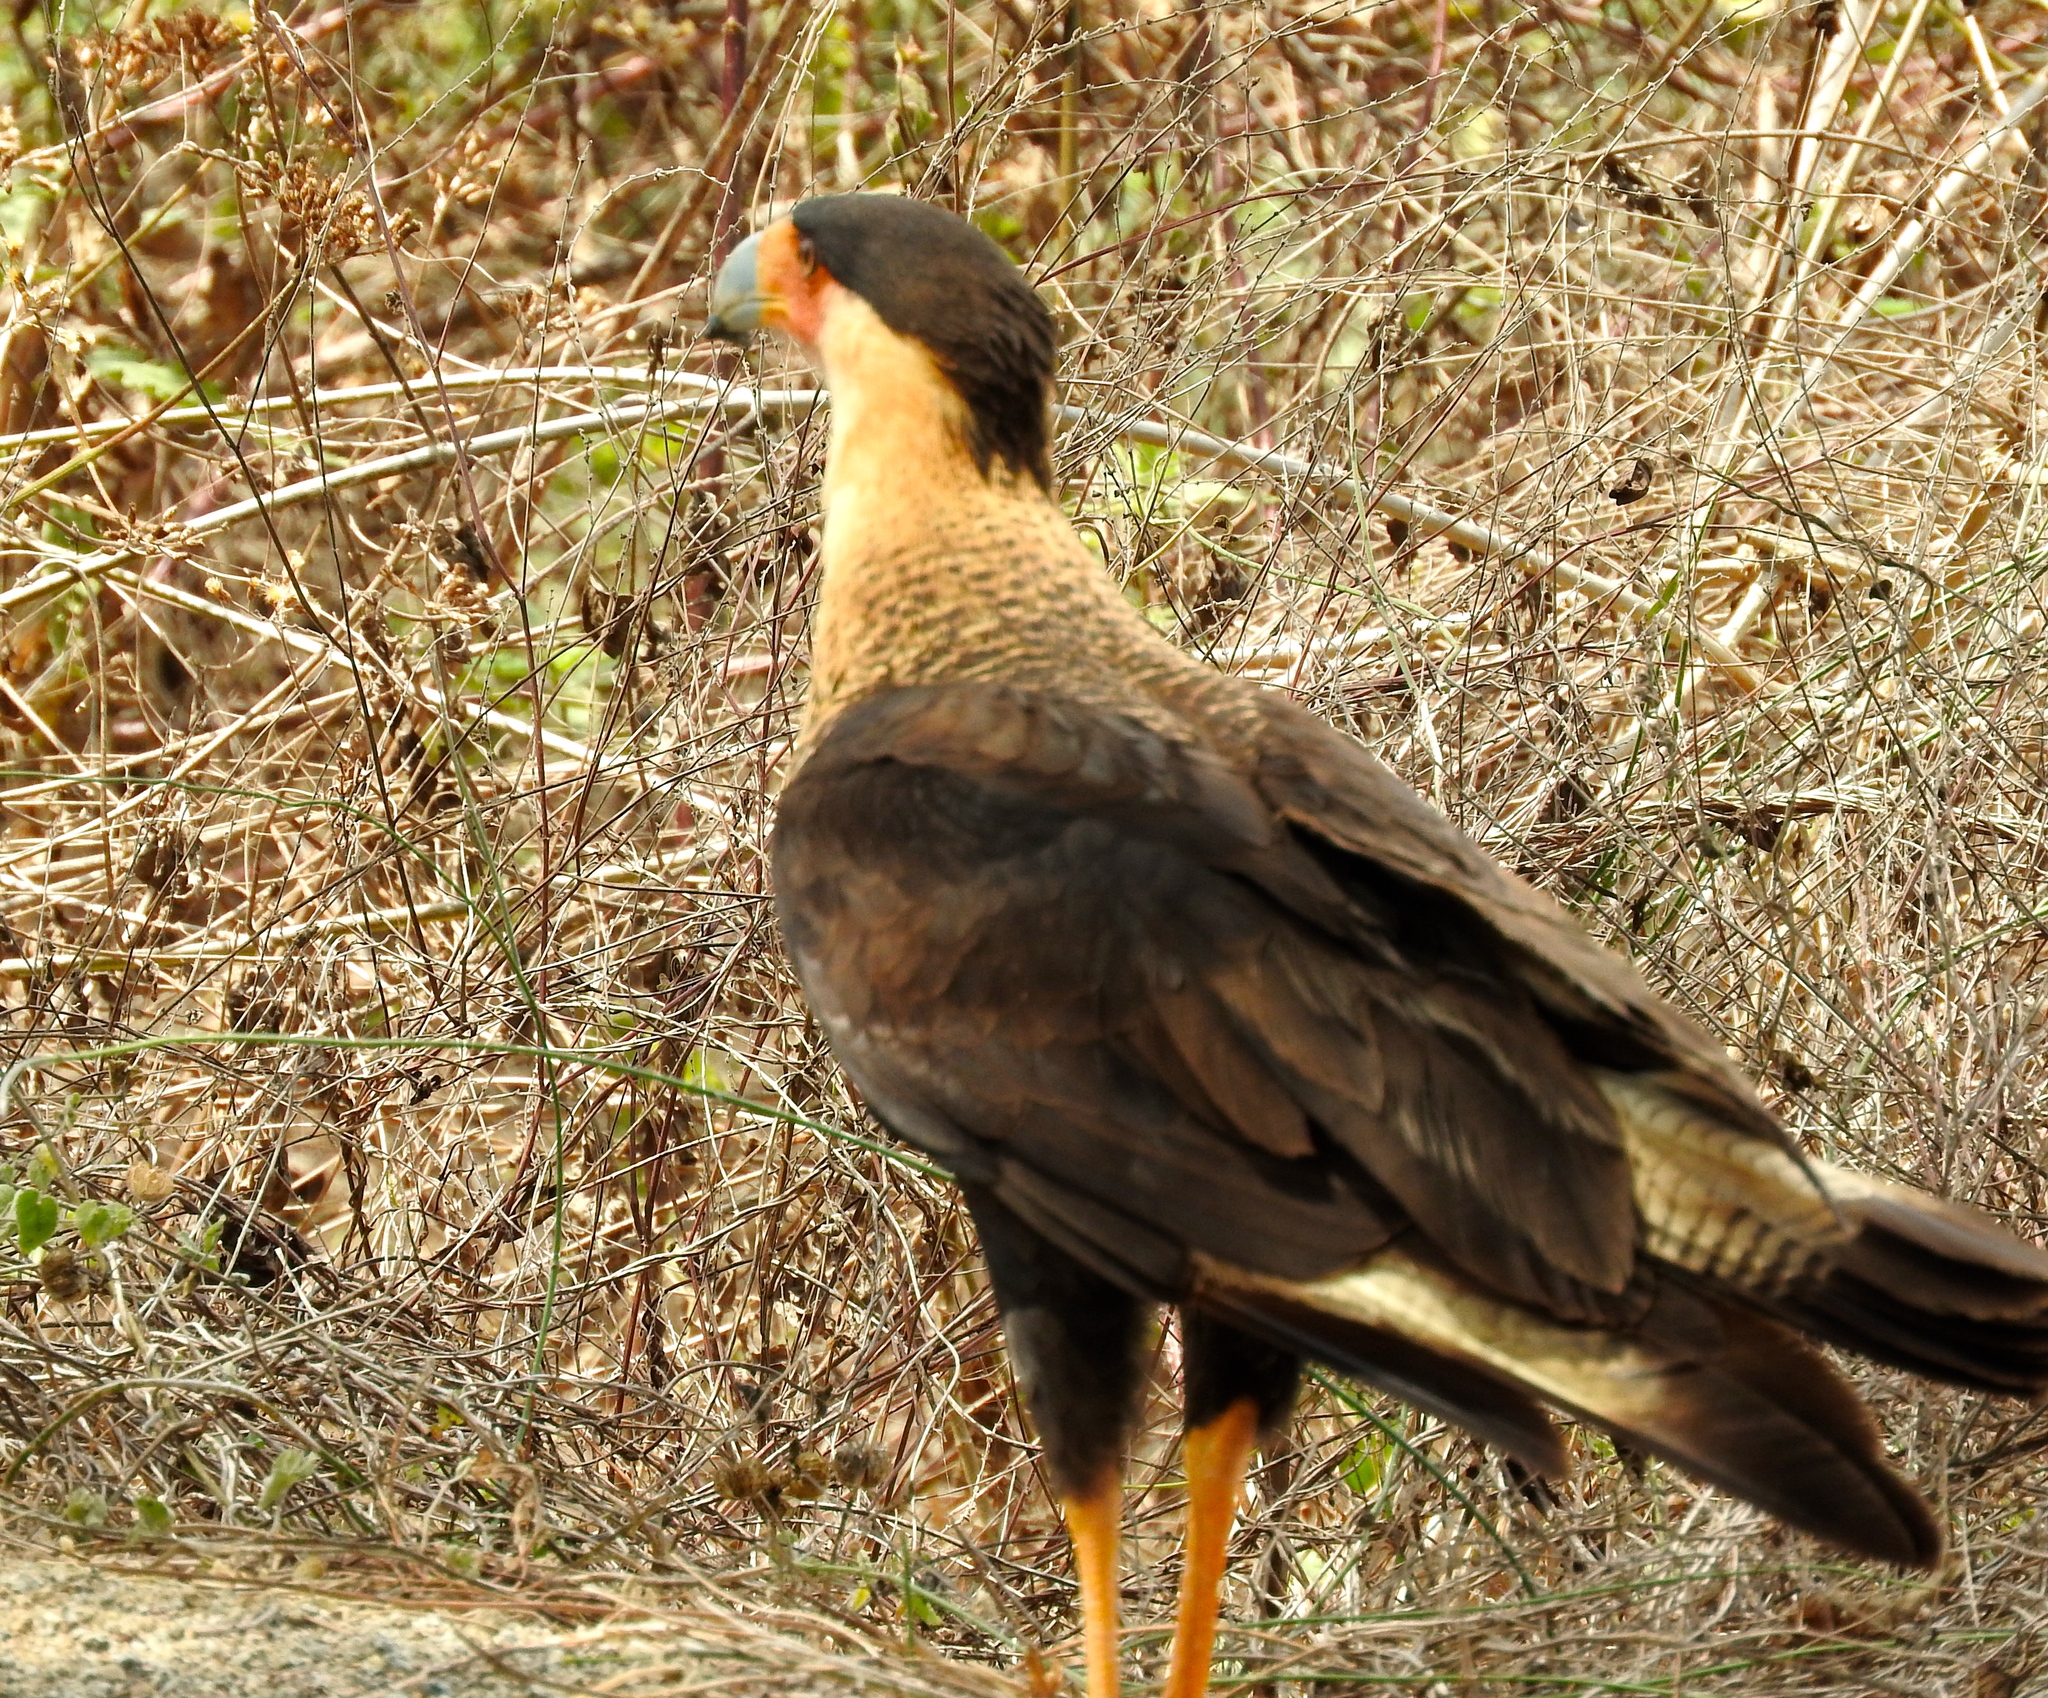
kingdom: Animalia
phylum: Chordata
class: Aves
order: Falconiformes
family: Falconidae
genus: Caracara
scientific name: Caracara plancus
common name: Southern caracara
